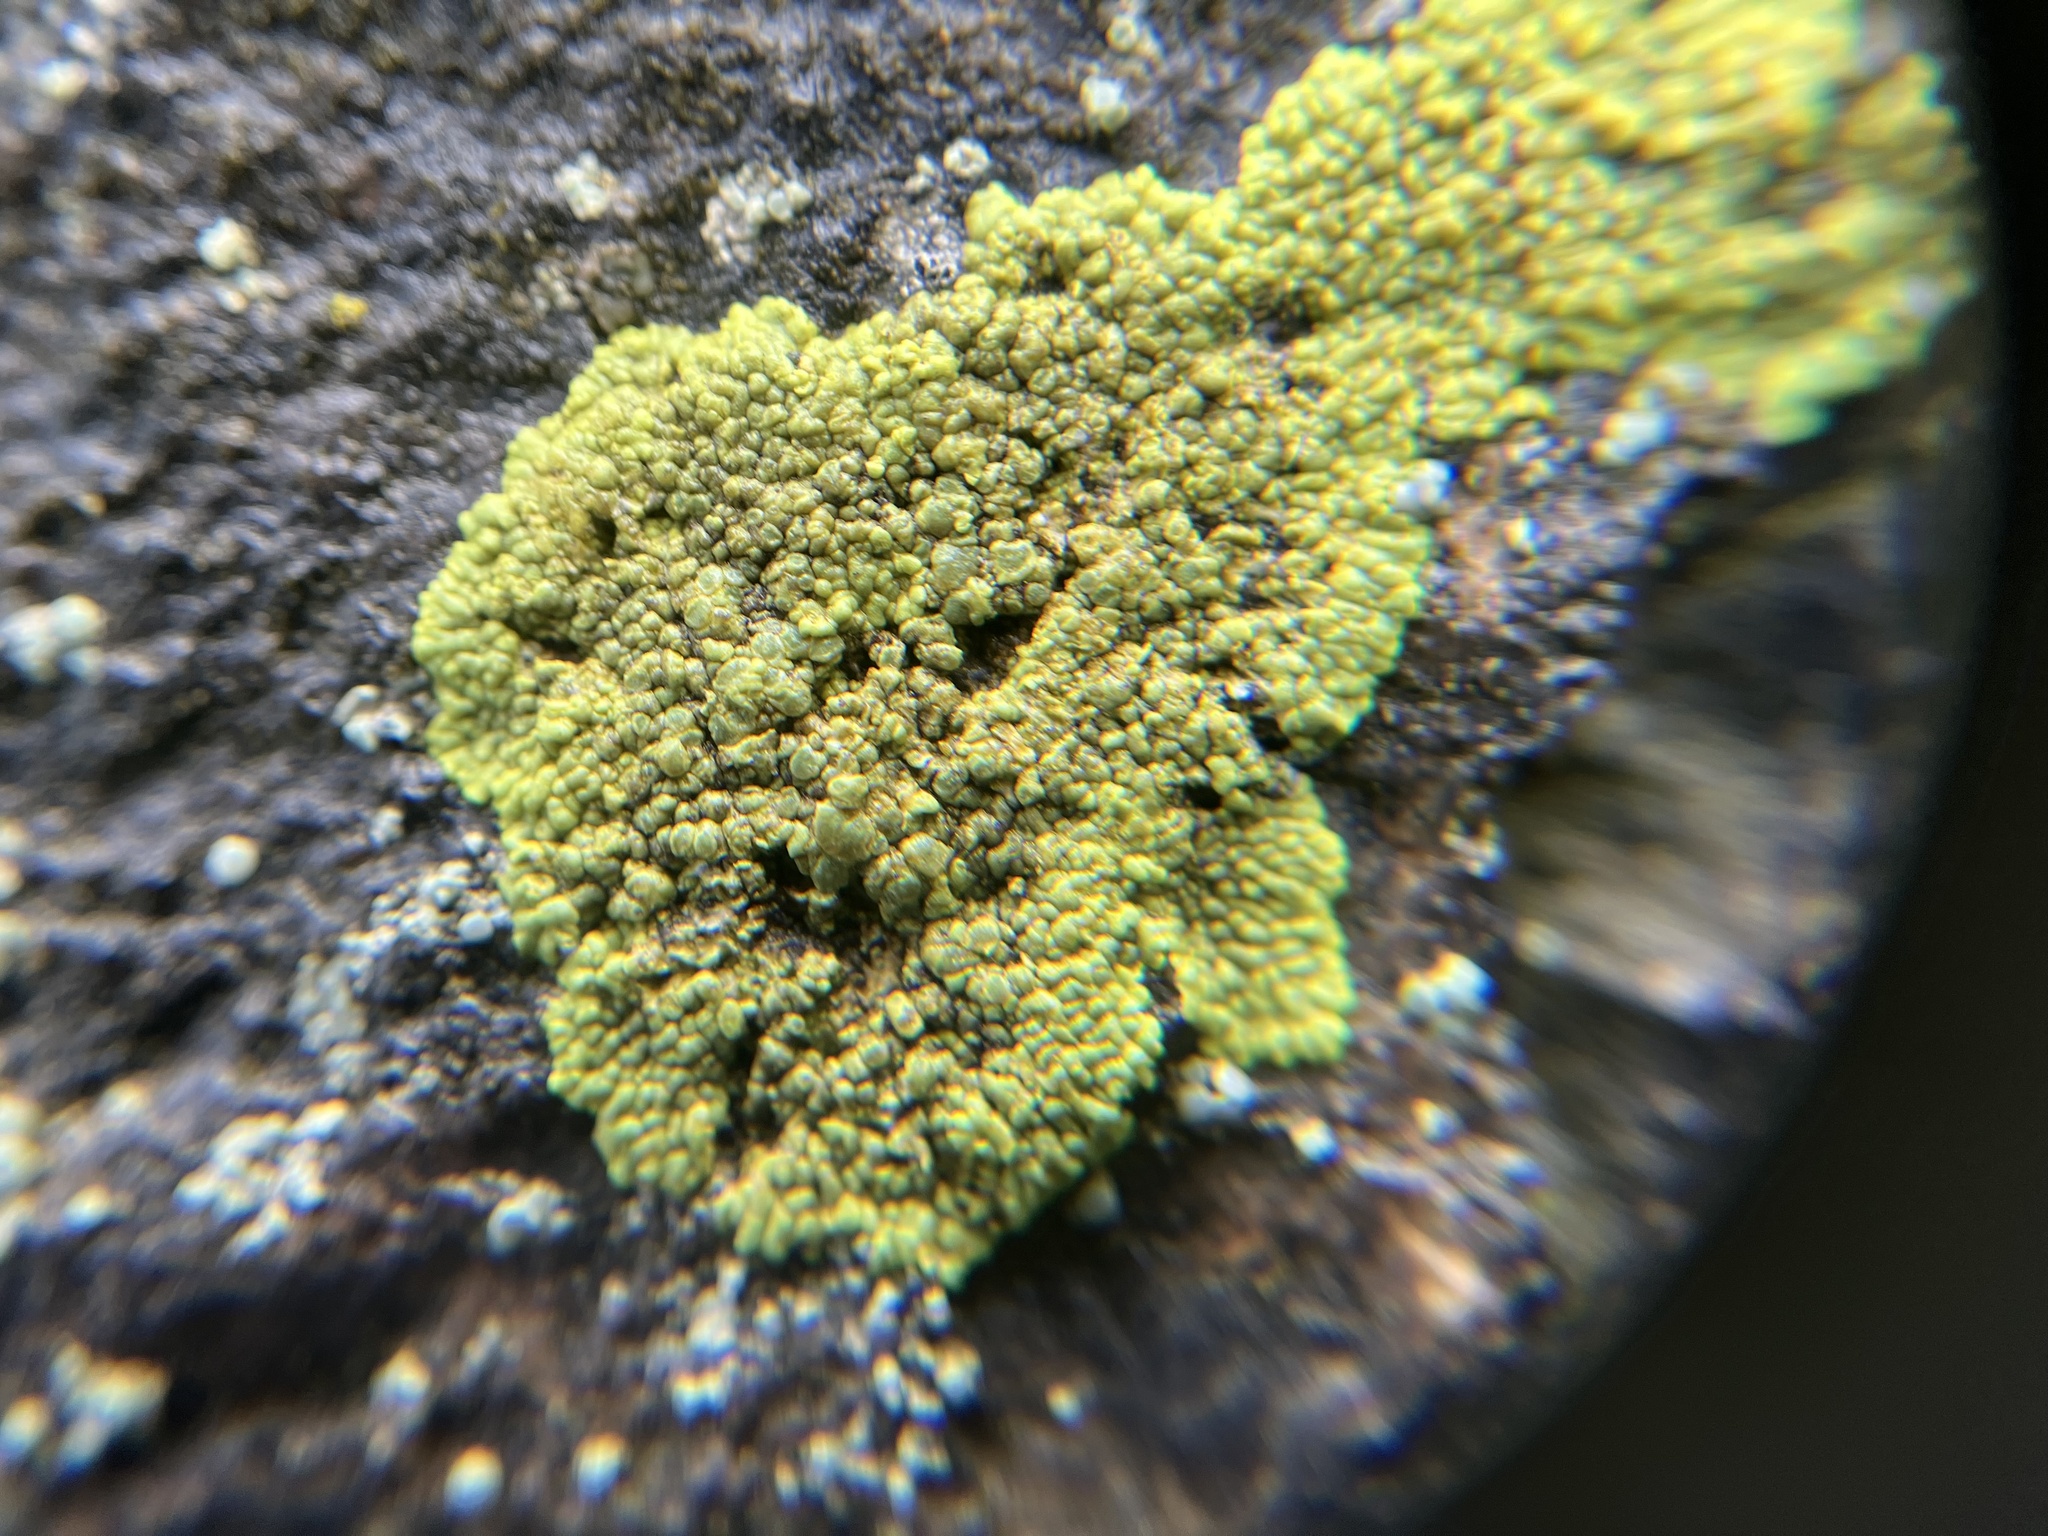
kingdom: Fungi
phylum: Ascomycota
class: Lecanoromycetes
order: Acarosporales
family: Acarosporaceae
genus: Pleopsidium
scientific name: Pleopsidium oxytonum
